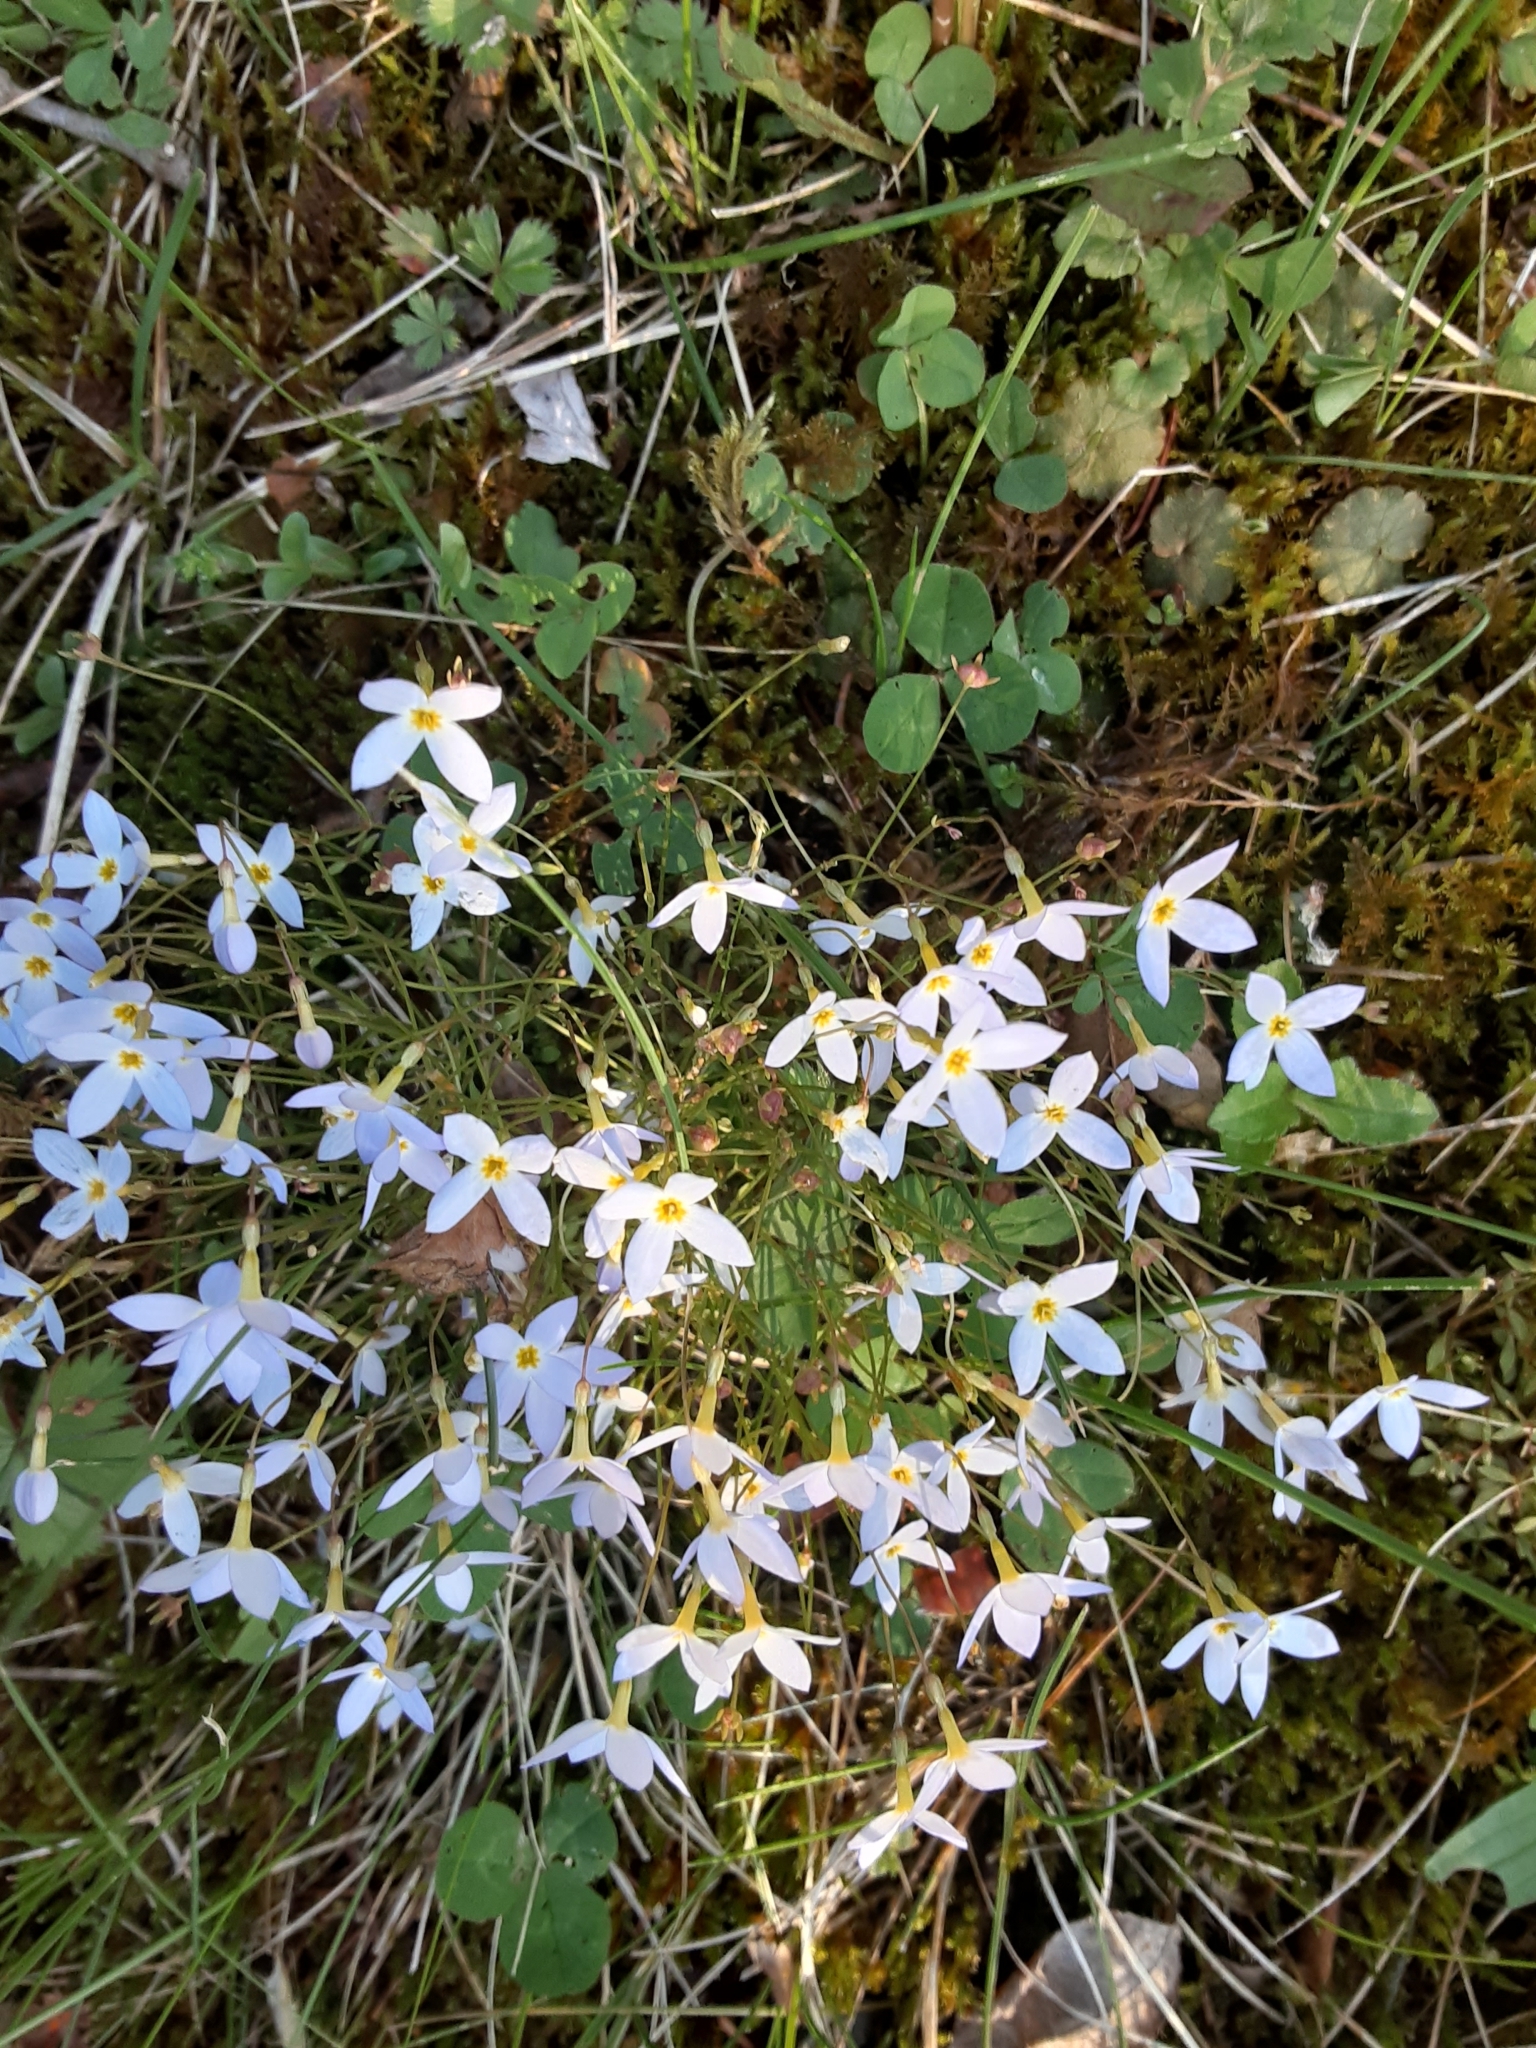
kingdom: Plantae
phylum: Tracheophyta
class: Magnoliopsida
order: Gentianales
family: Rubiaceae
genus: Houstonia
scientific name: Houstonia caerulea
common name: Bluets
